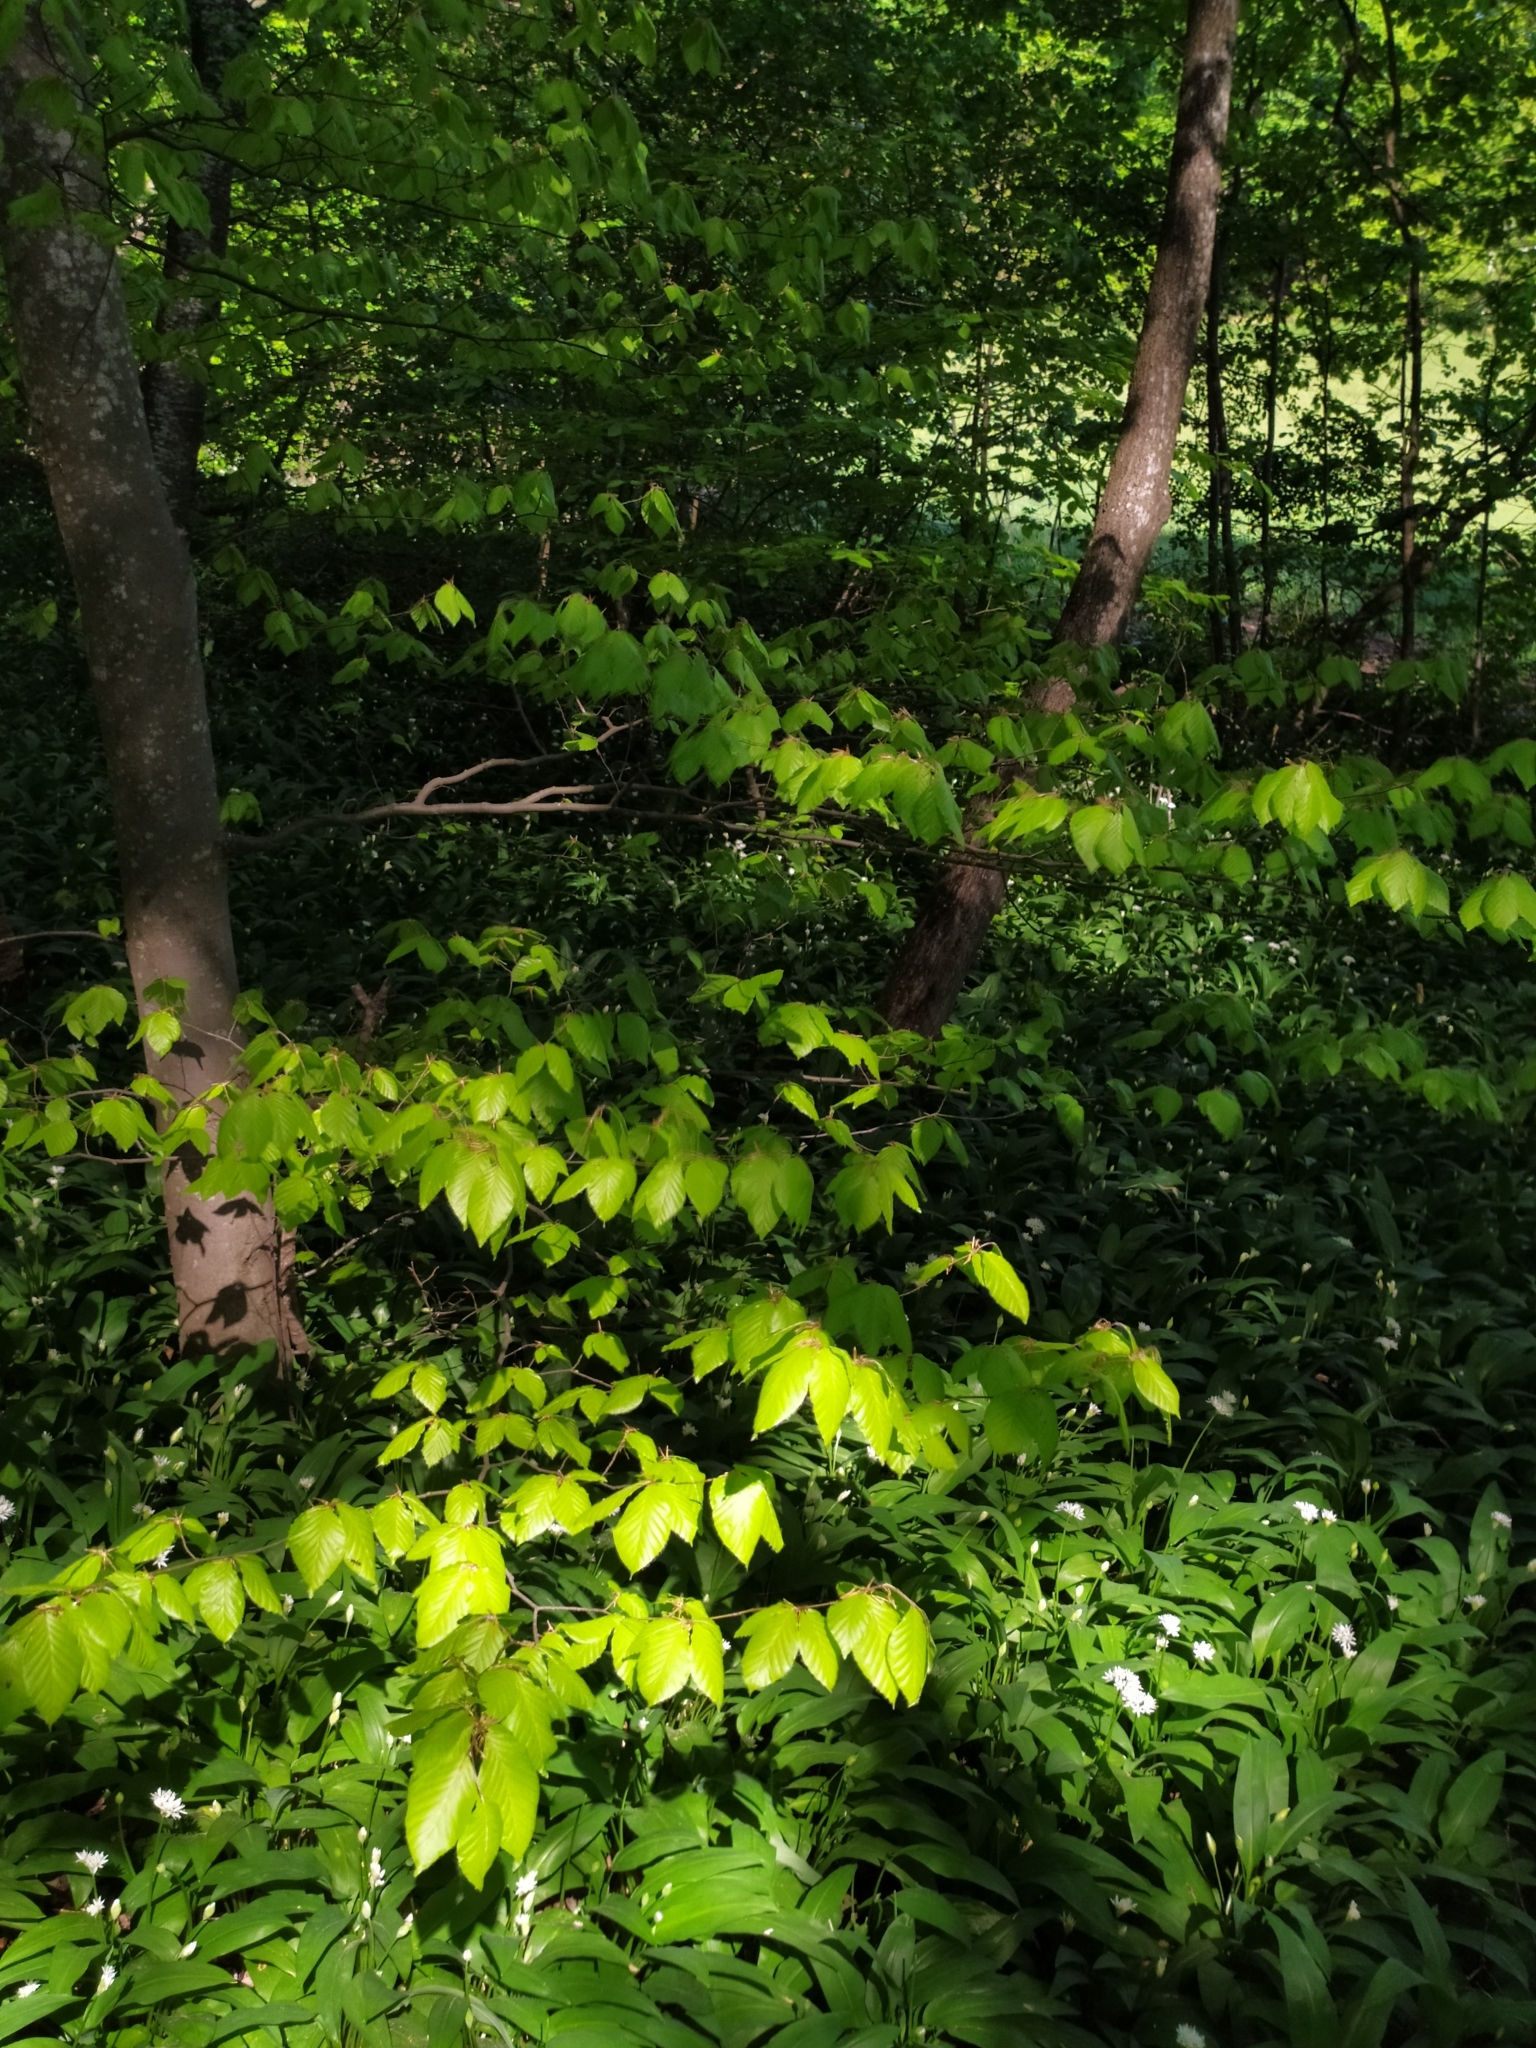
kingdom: Plantae
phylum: Tracheophyta
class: Magnoliopsida
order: Fagales
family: Fagaceae
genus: Fagus
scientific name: Fagus sylvatica
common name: Beech
